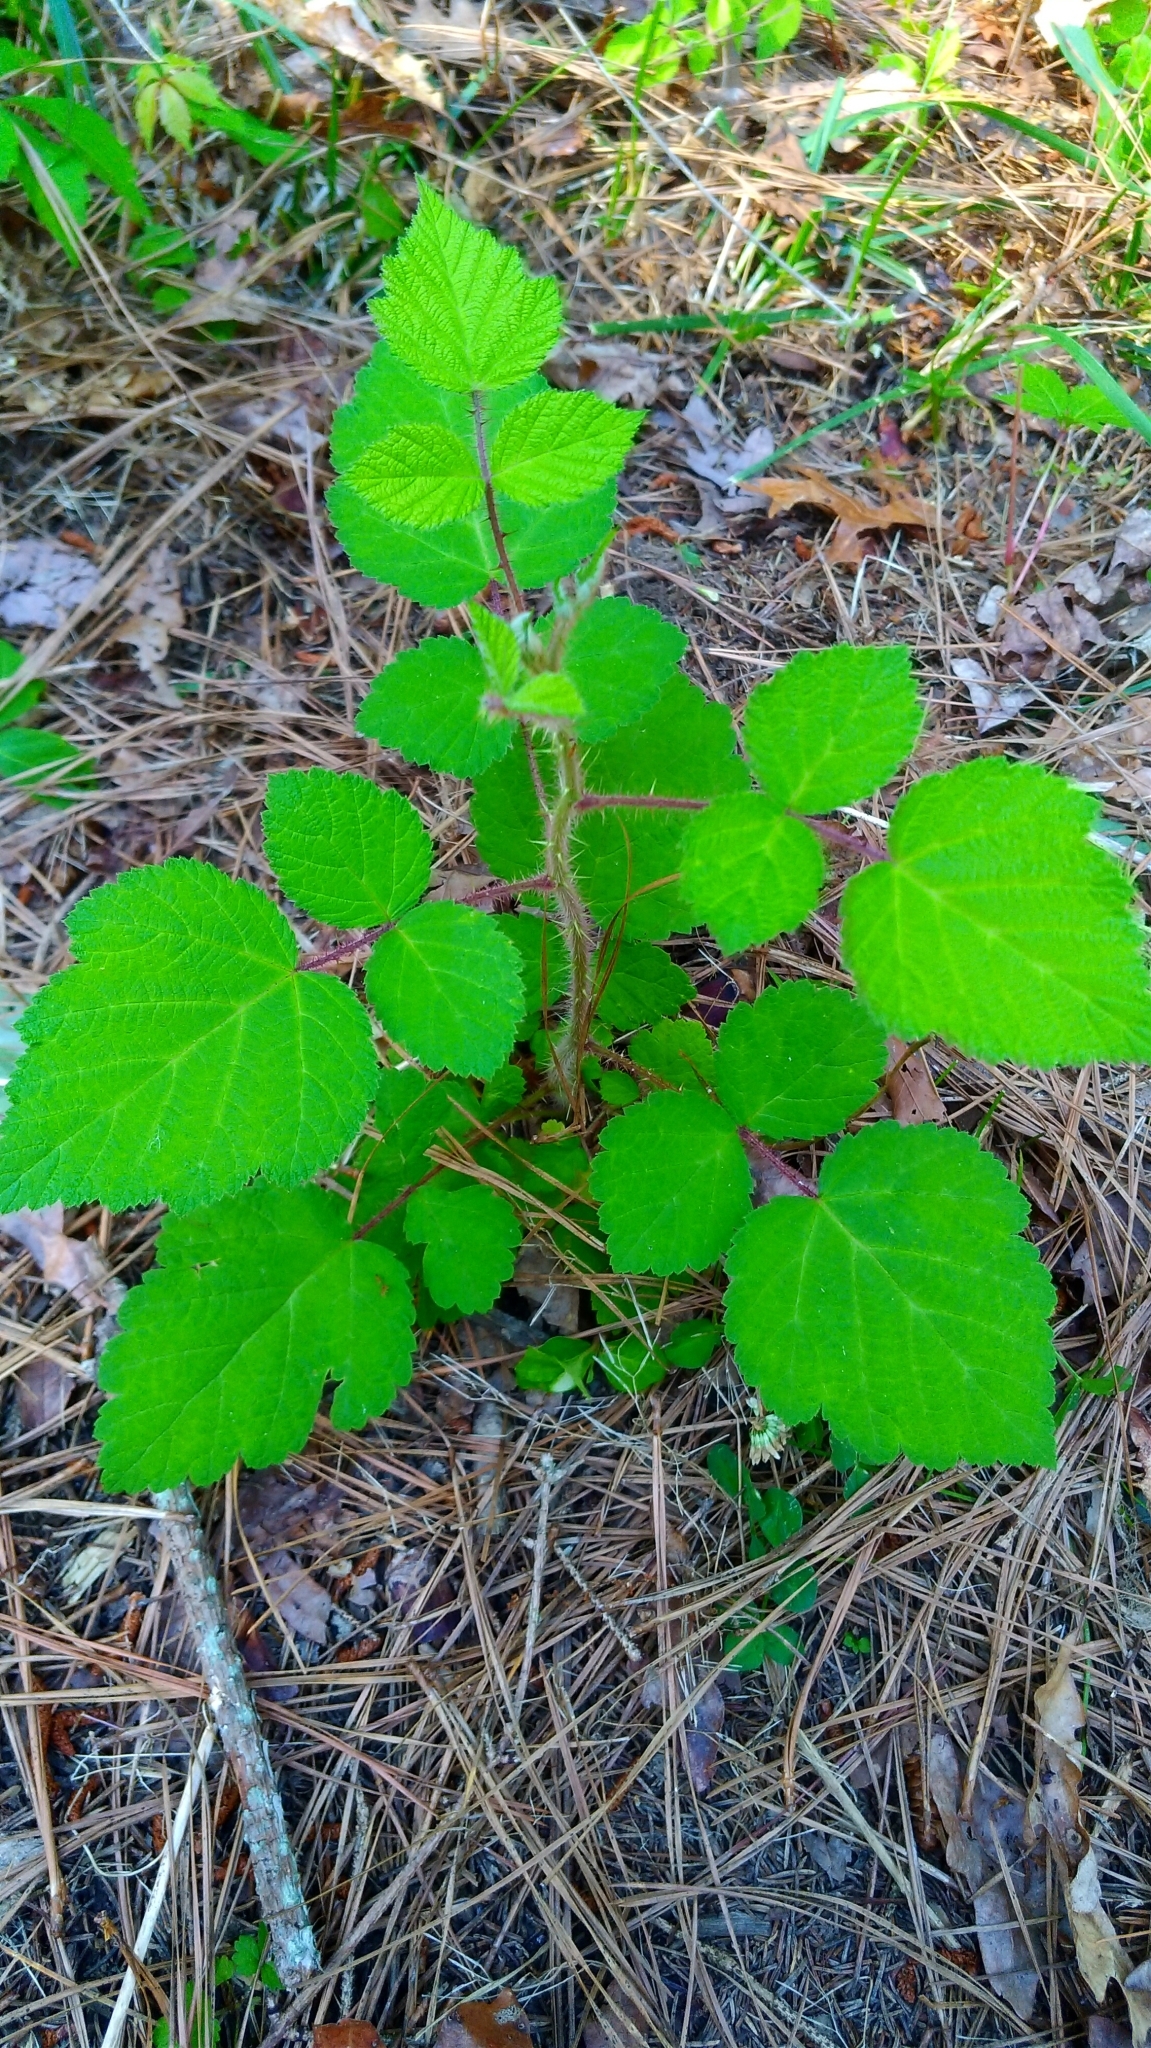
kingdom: Plantae
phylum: Tracheophyta
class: Magnoliopsida
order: Rosales
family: Rosaceae
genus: Rubus
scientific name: Rubus phoenicolasius
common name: Japanese wineberry
